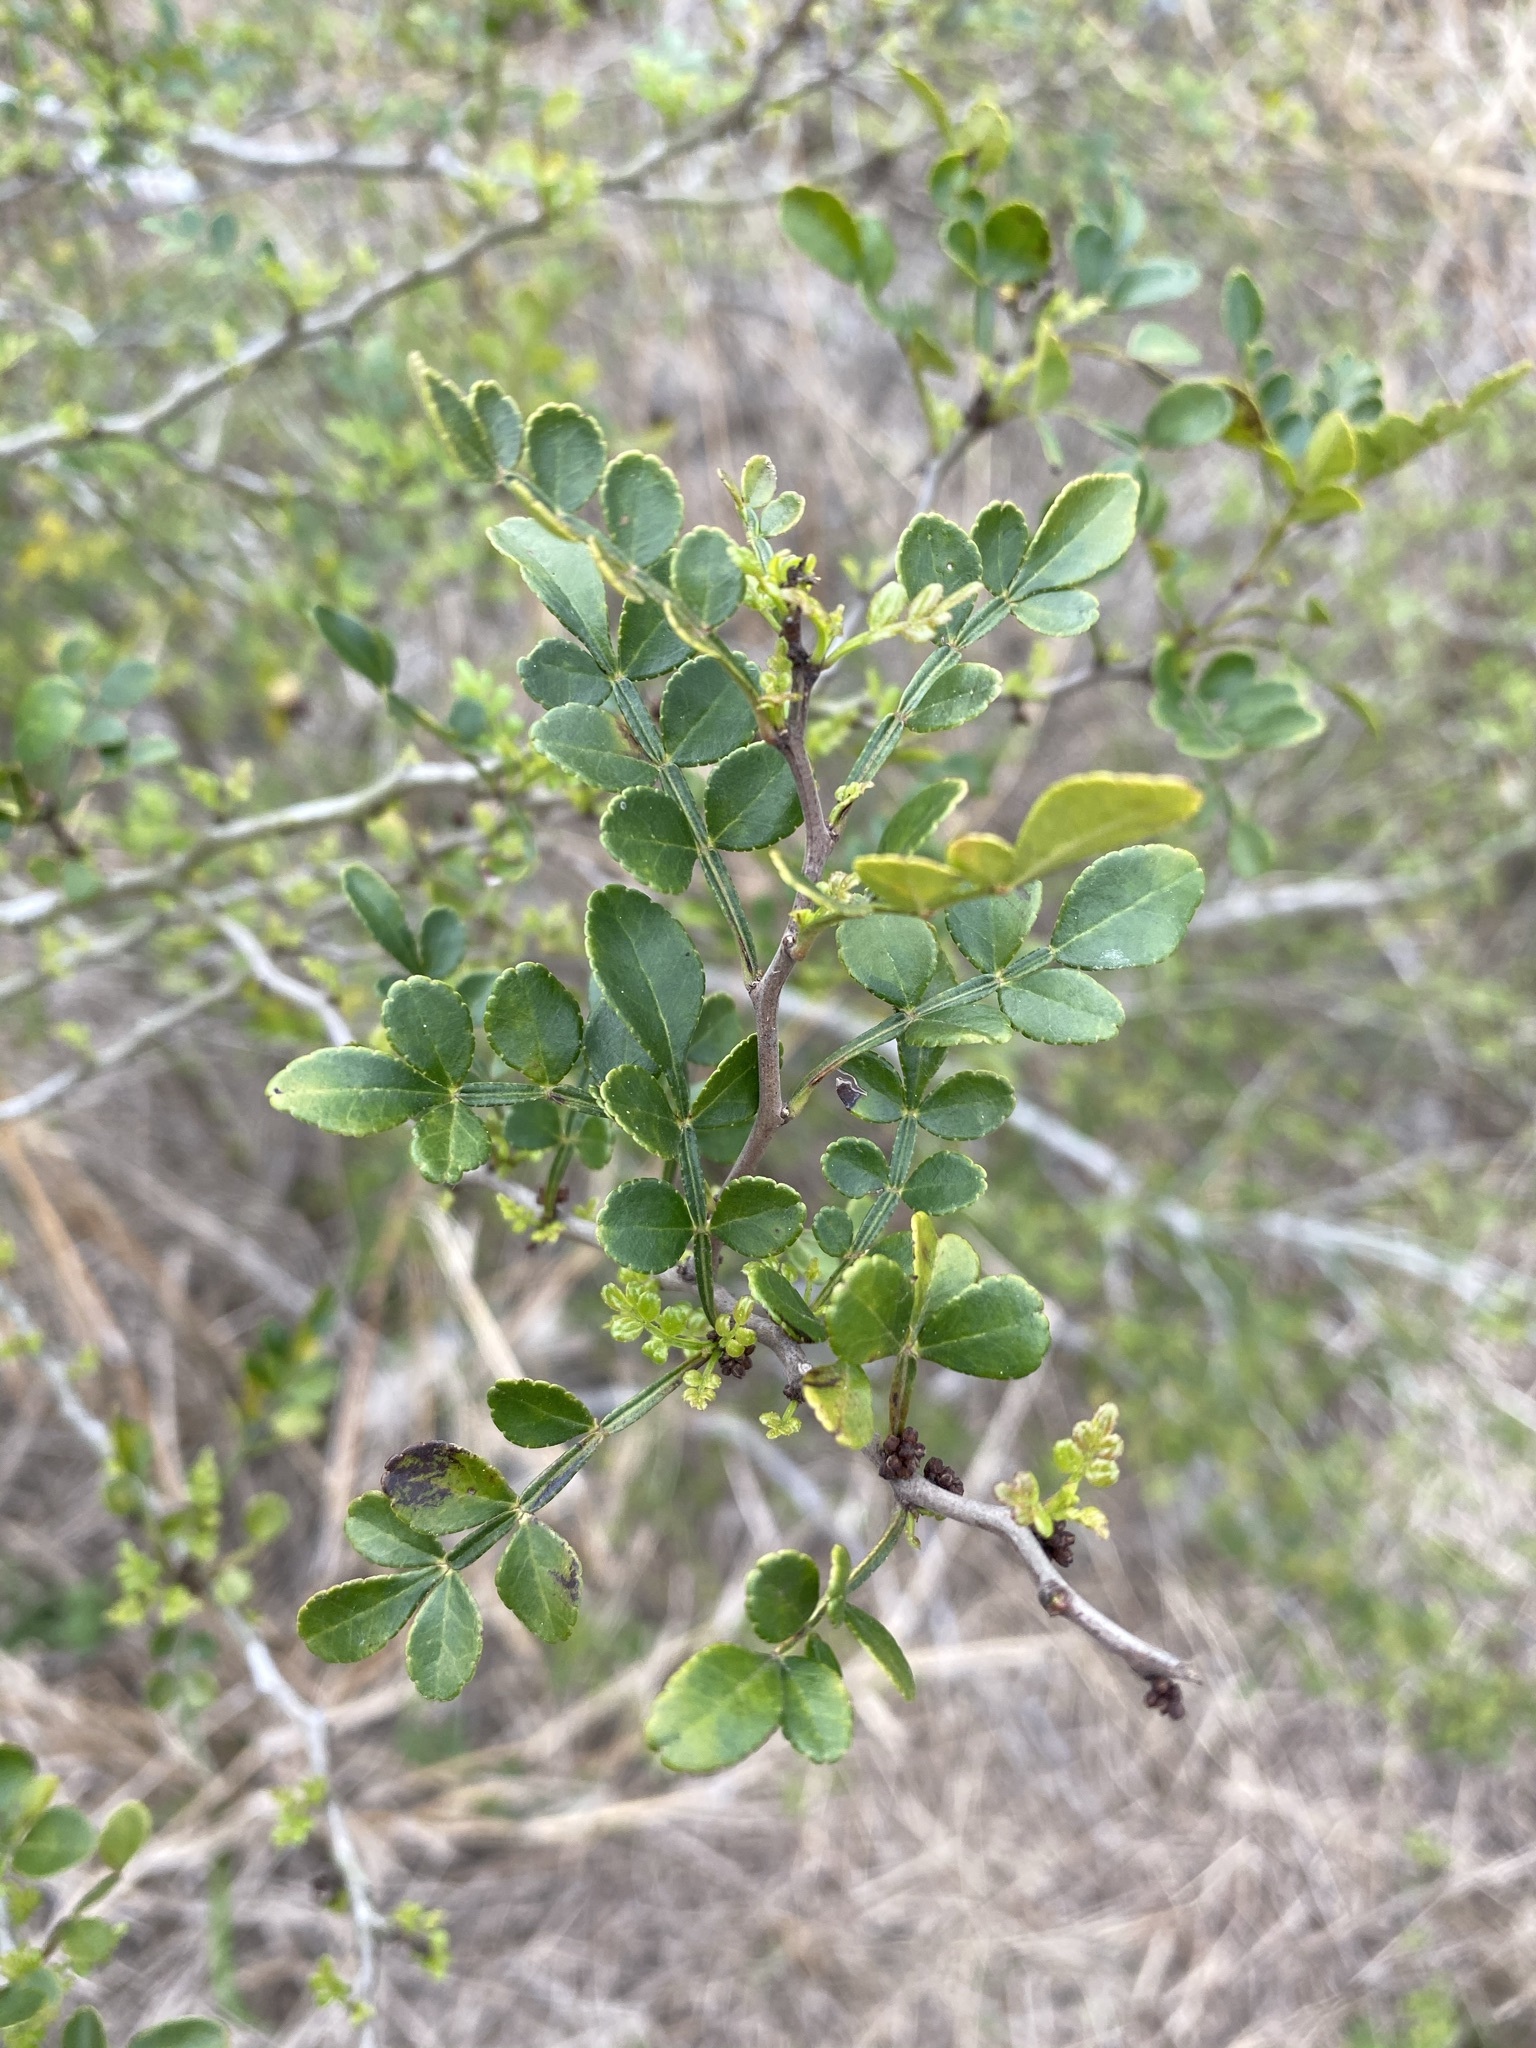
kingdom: Plantae
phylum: Tracheophyta
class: Magnoliopsida
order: Sapindales
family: Rutaceae
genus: Zanthoxylum
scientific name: Zanthoxylum fagara
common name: Lime prickly-ash
